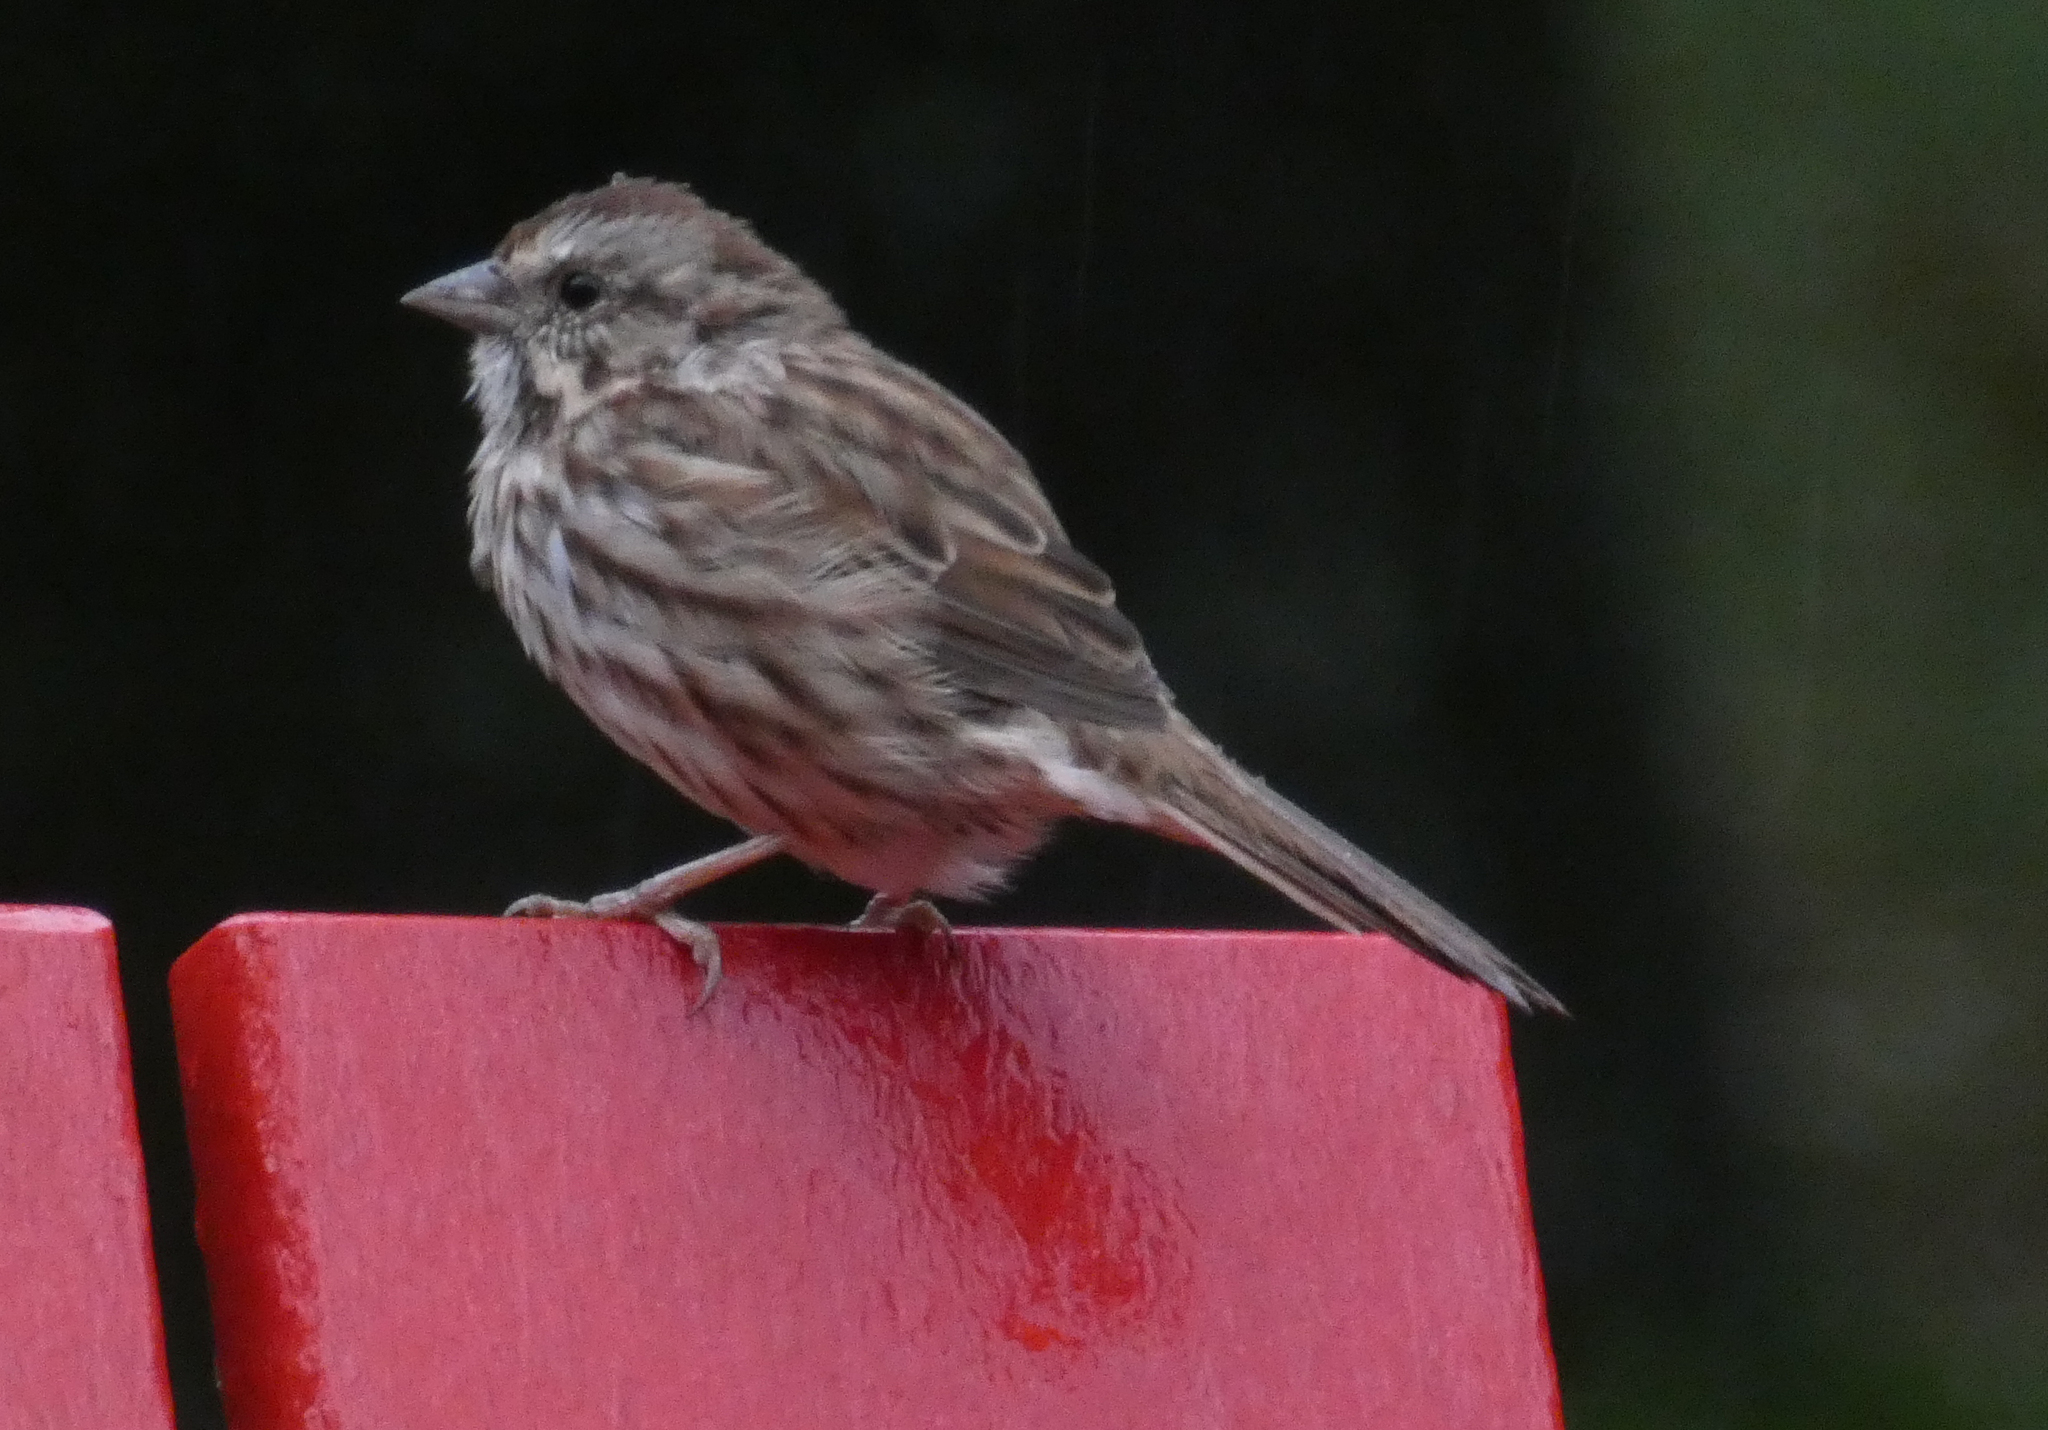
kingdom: Animalia
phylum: Chordata
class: Aves
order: Passeriformes
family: Passerellidae
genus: Melospiza
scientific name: Melospiza melodia
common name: Song sparrow
